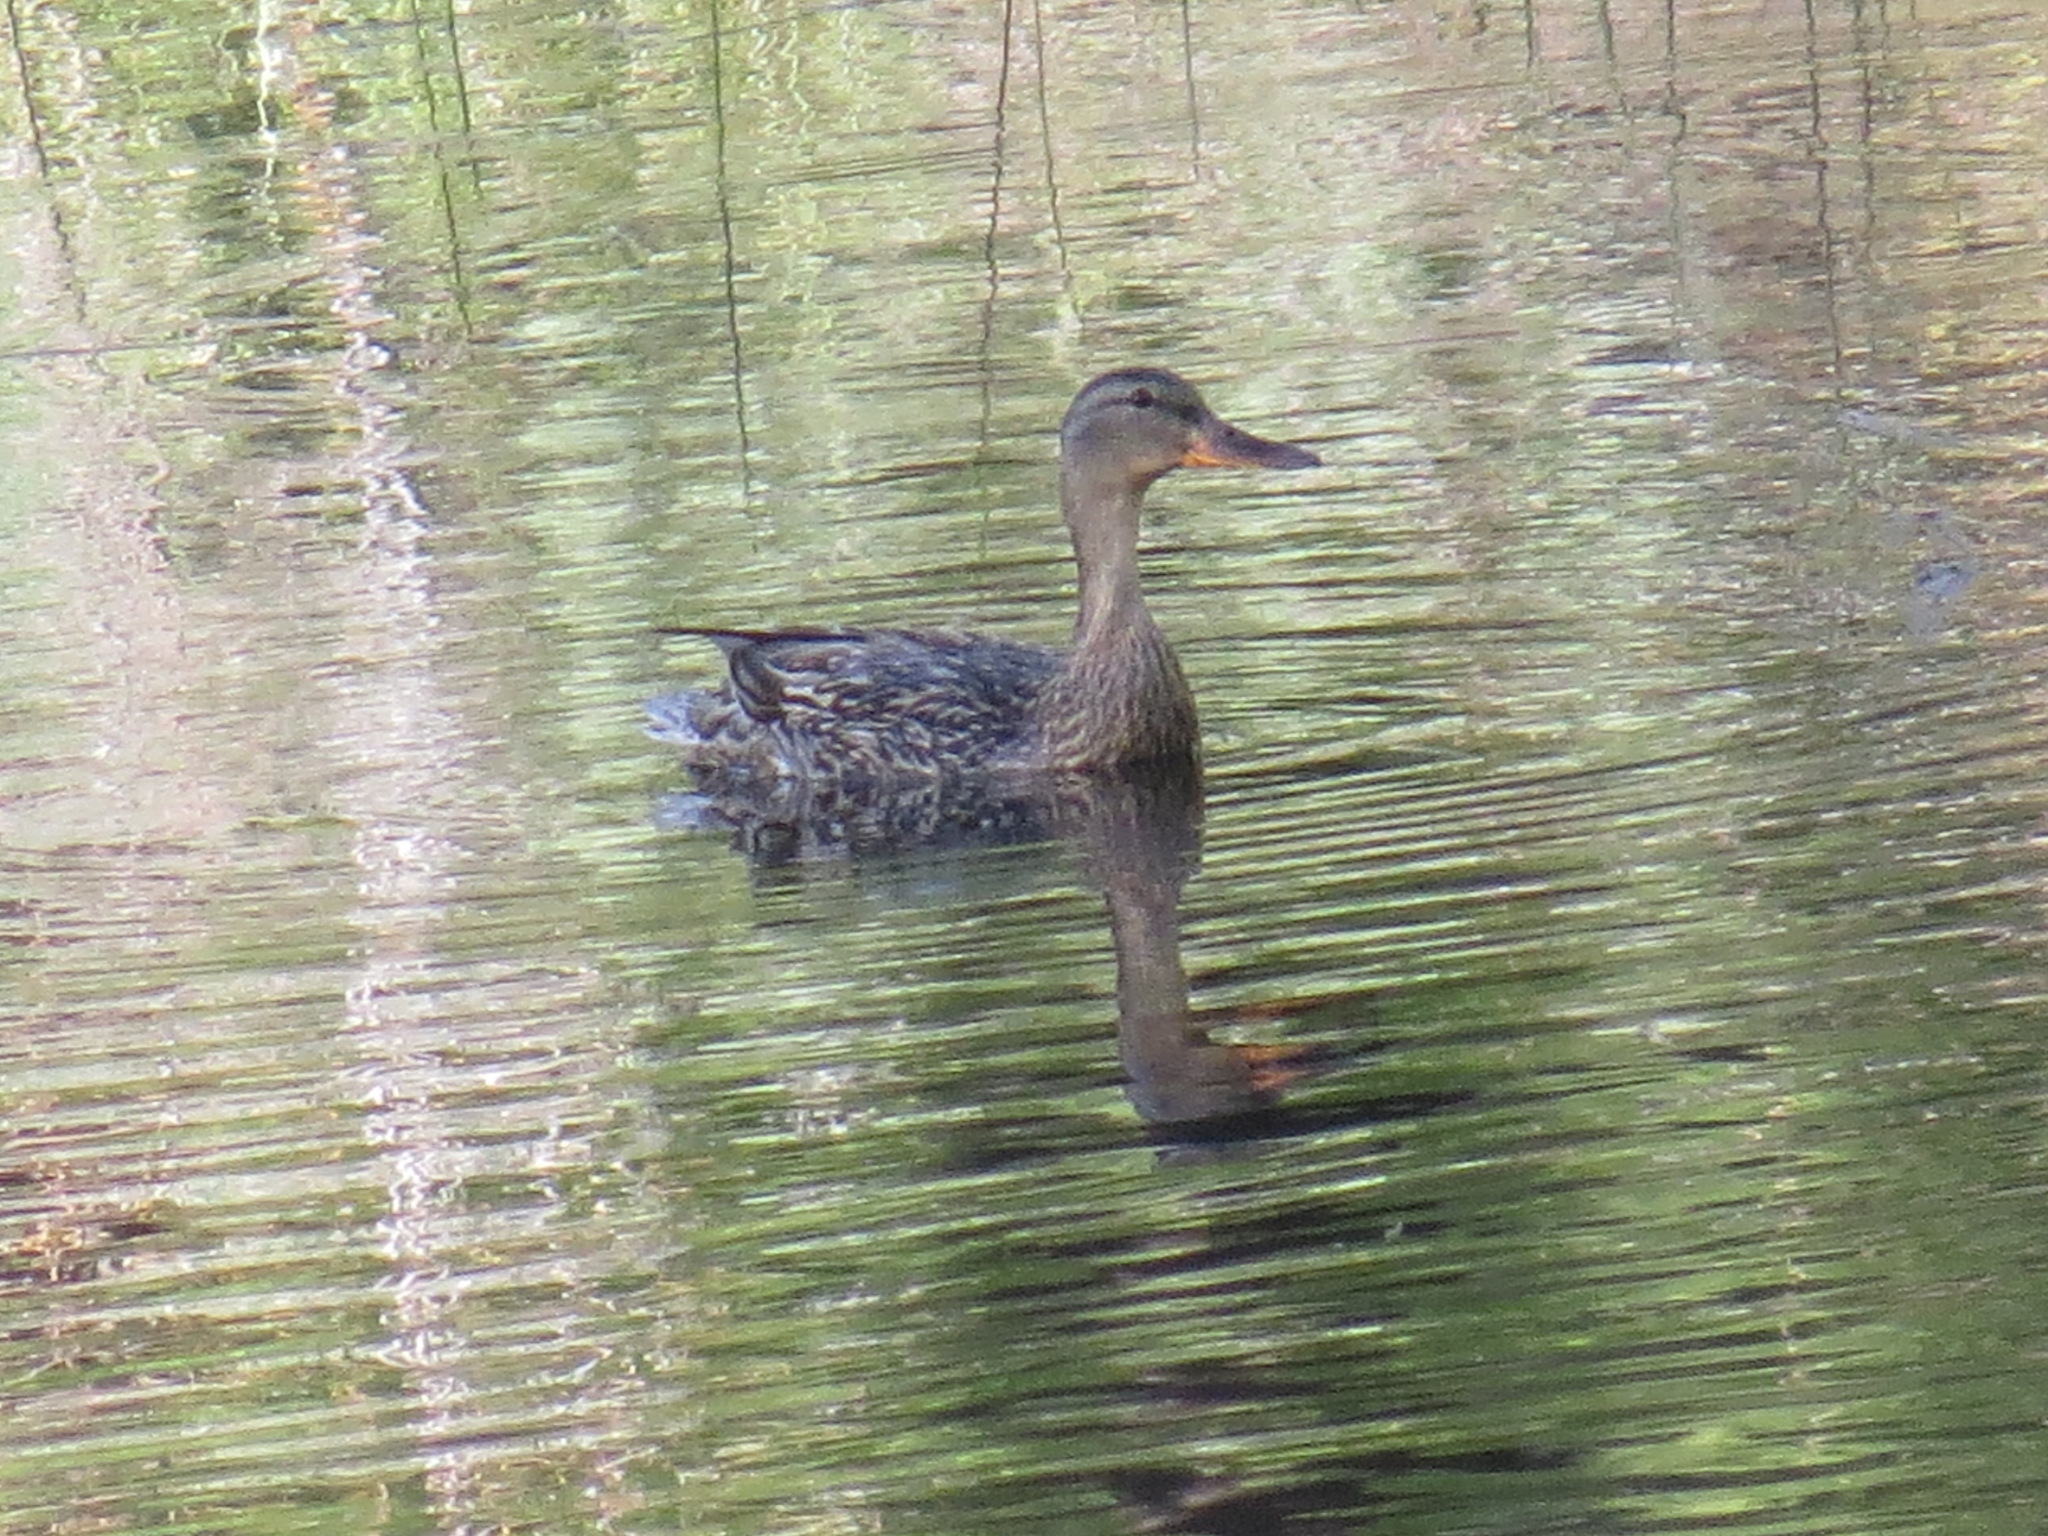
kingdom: Animalia
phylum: Chordata
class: Aves
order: Anseriformes
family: Anatidae
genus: Anas
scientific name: Anas platyrhynchos
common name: Mallard
